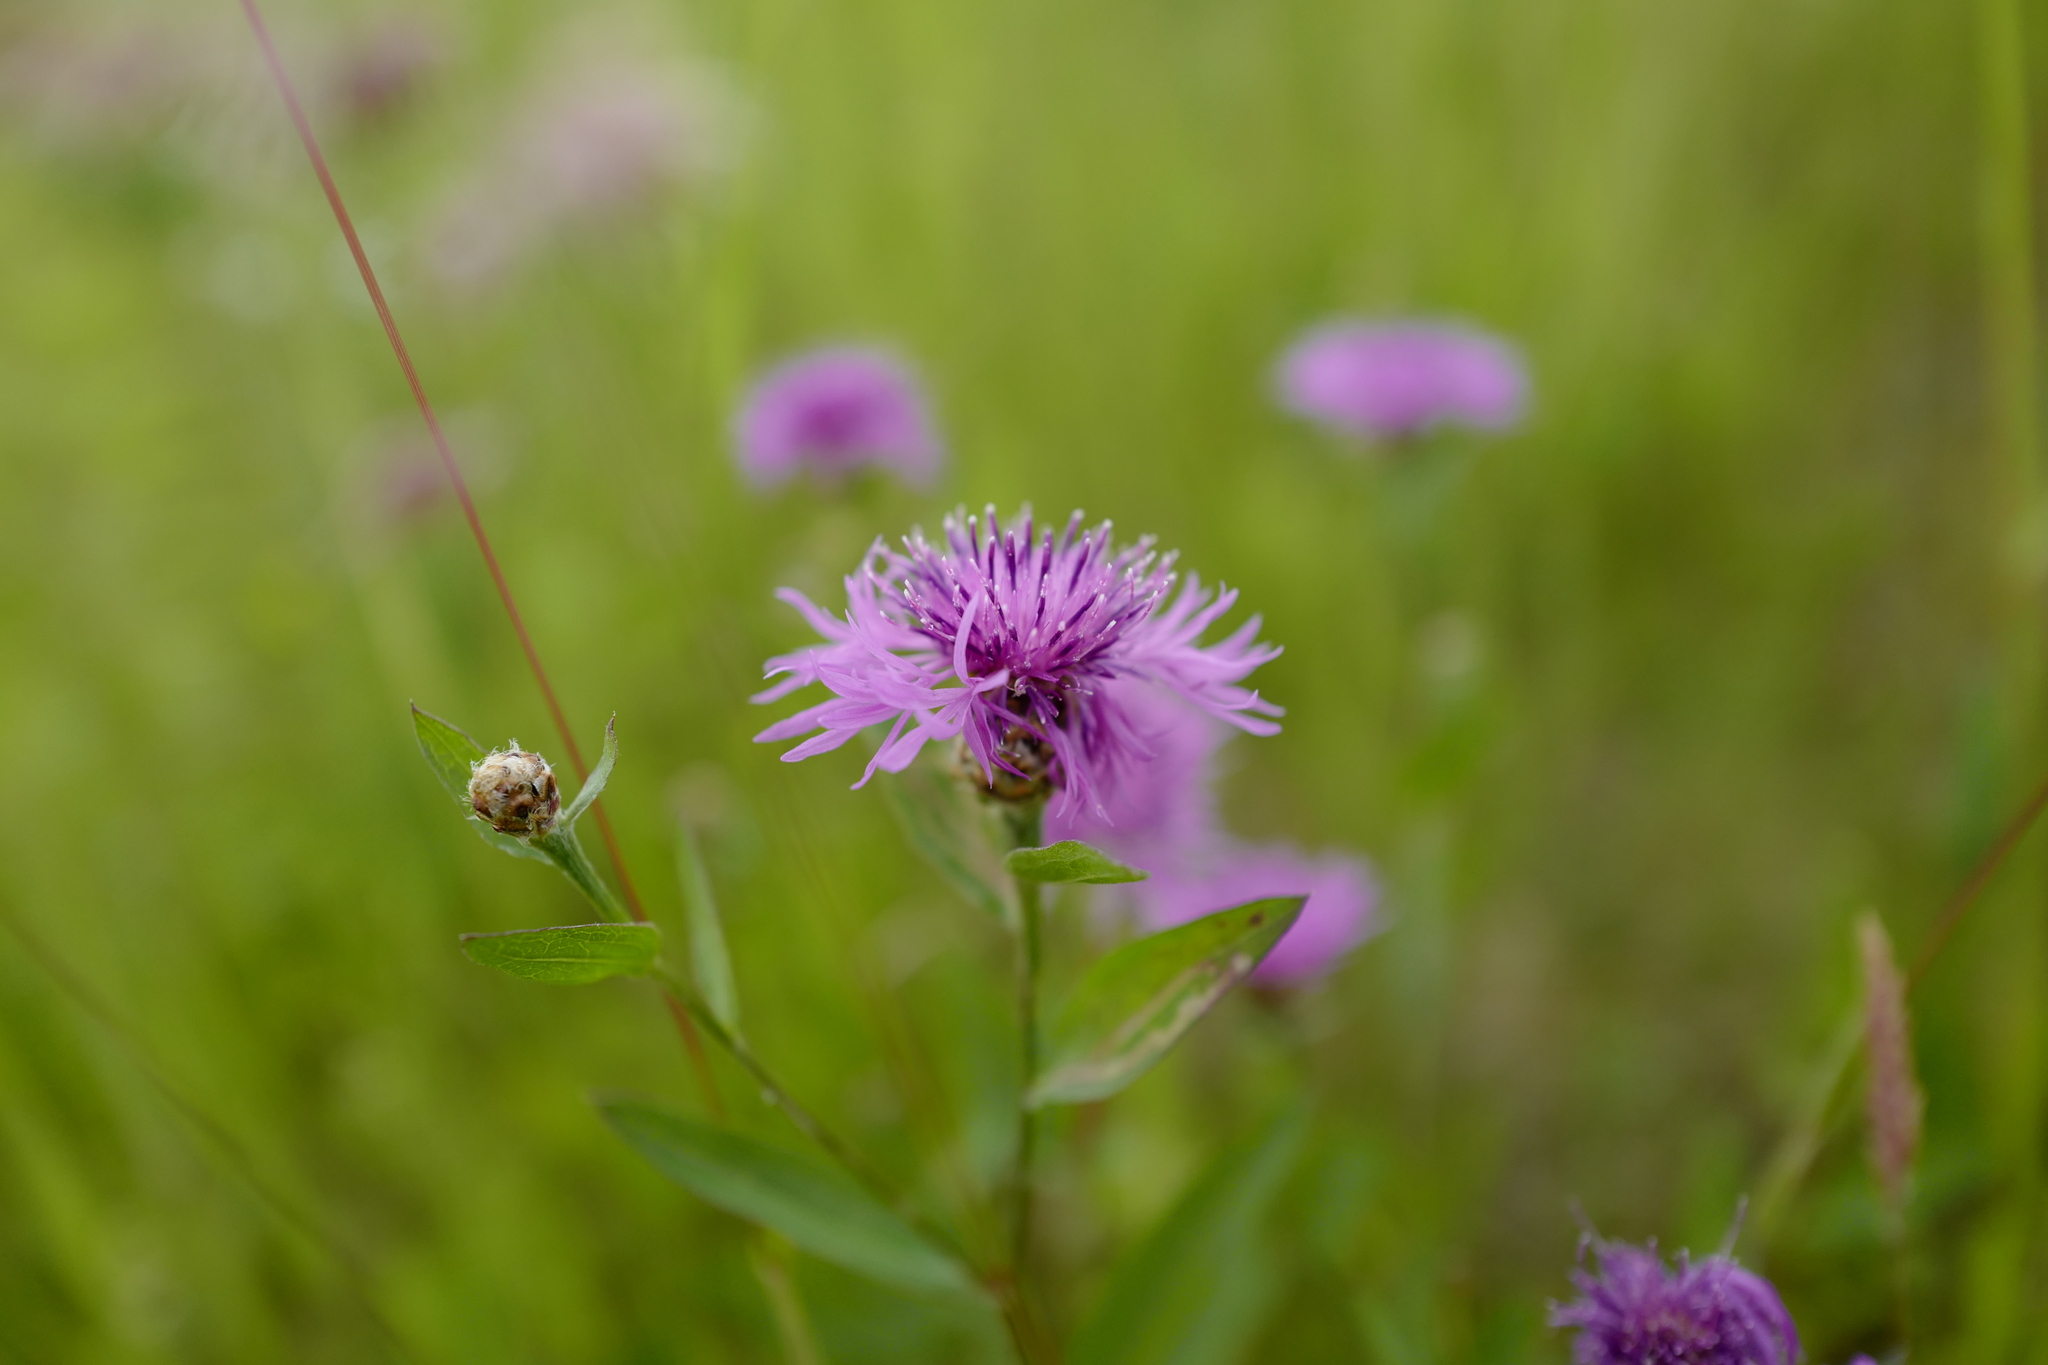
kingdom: Plantae
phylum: Tracheophyta
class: Magnoliopsida
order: Asterales
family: Asteraceae
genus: Centaurea
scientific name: Centaurea jacea
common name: Brown knapweed
